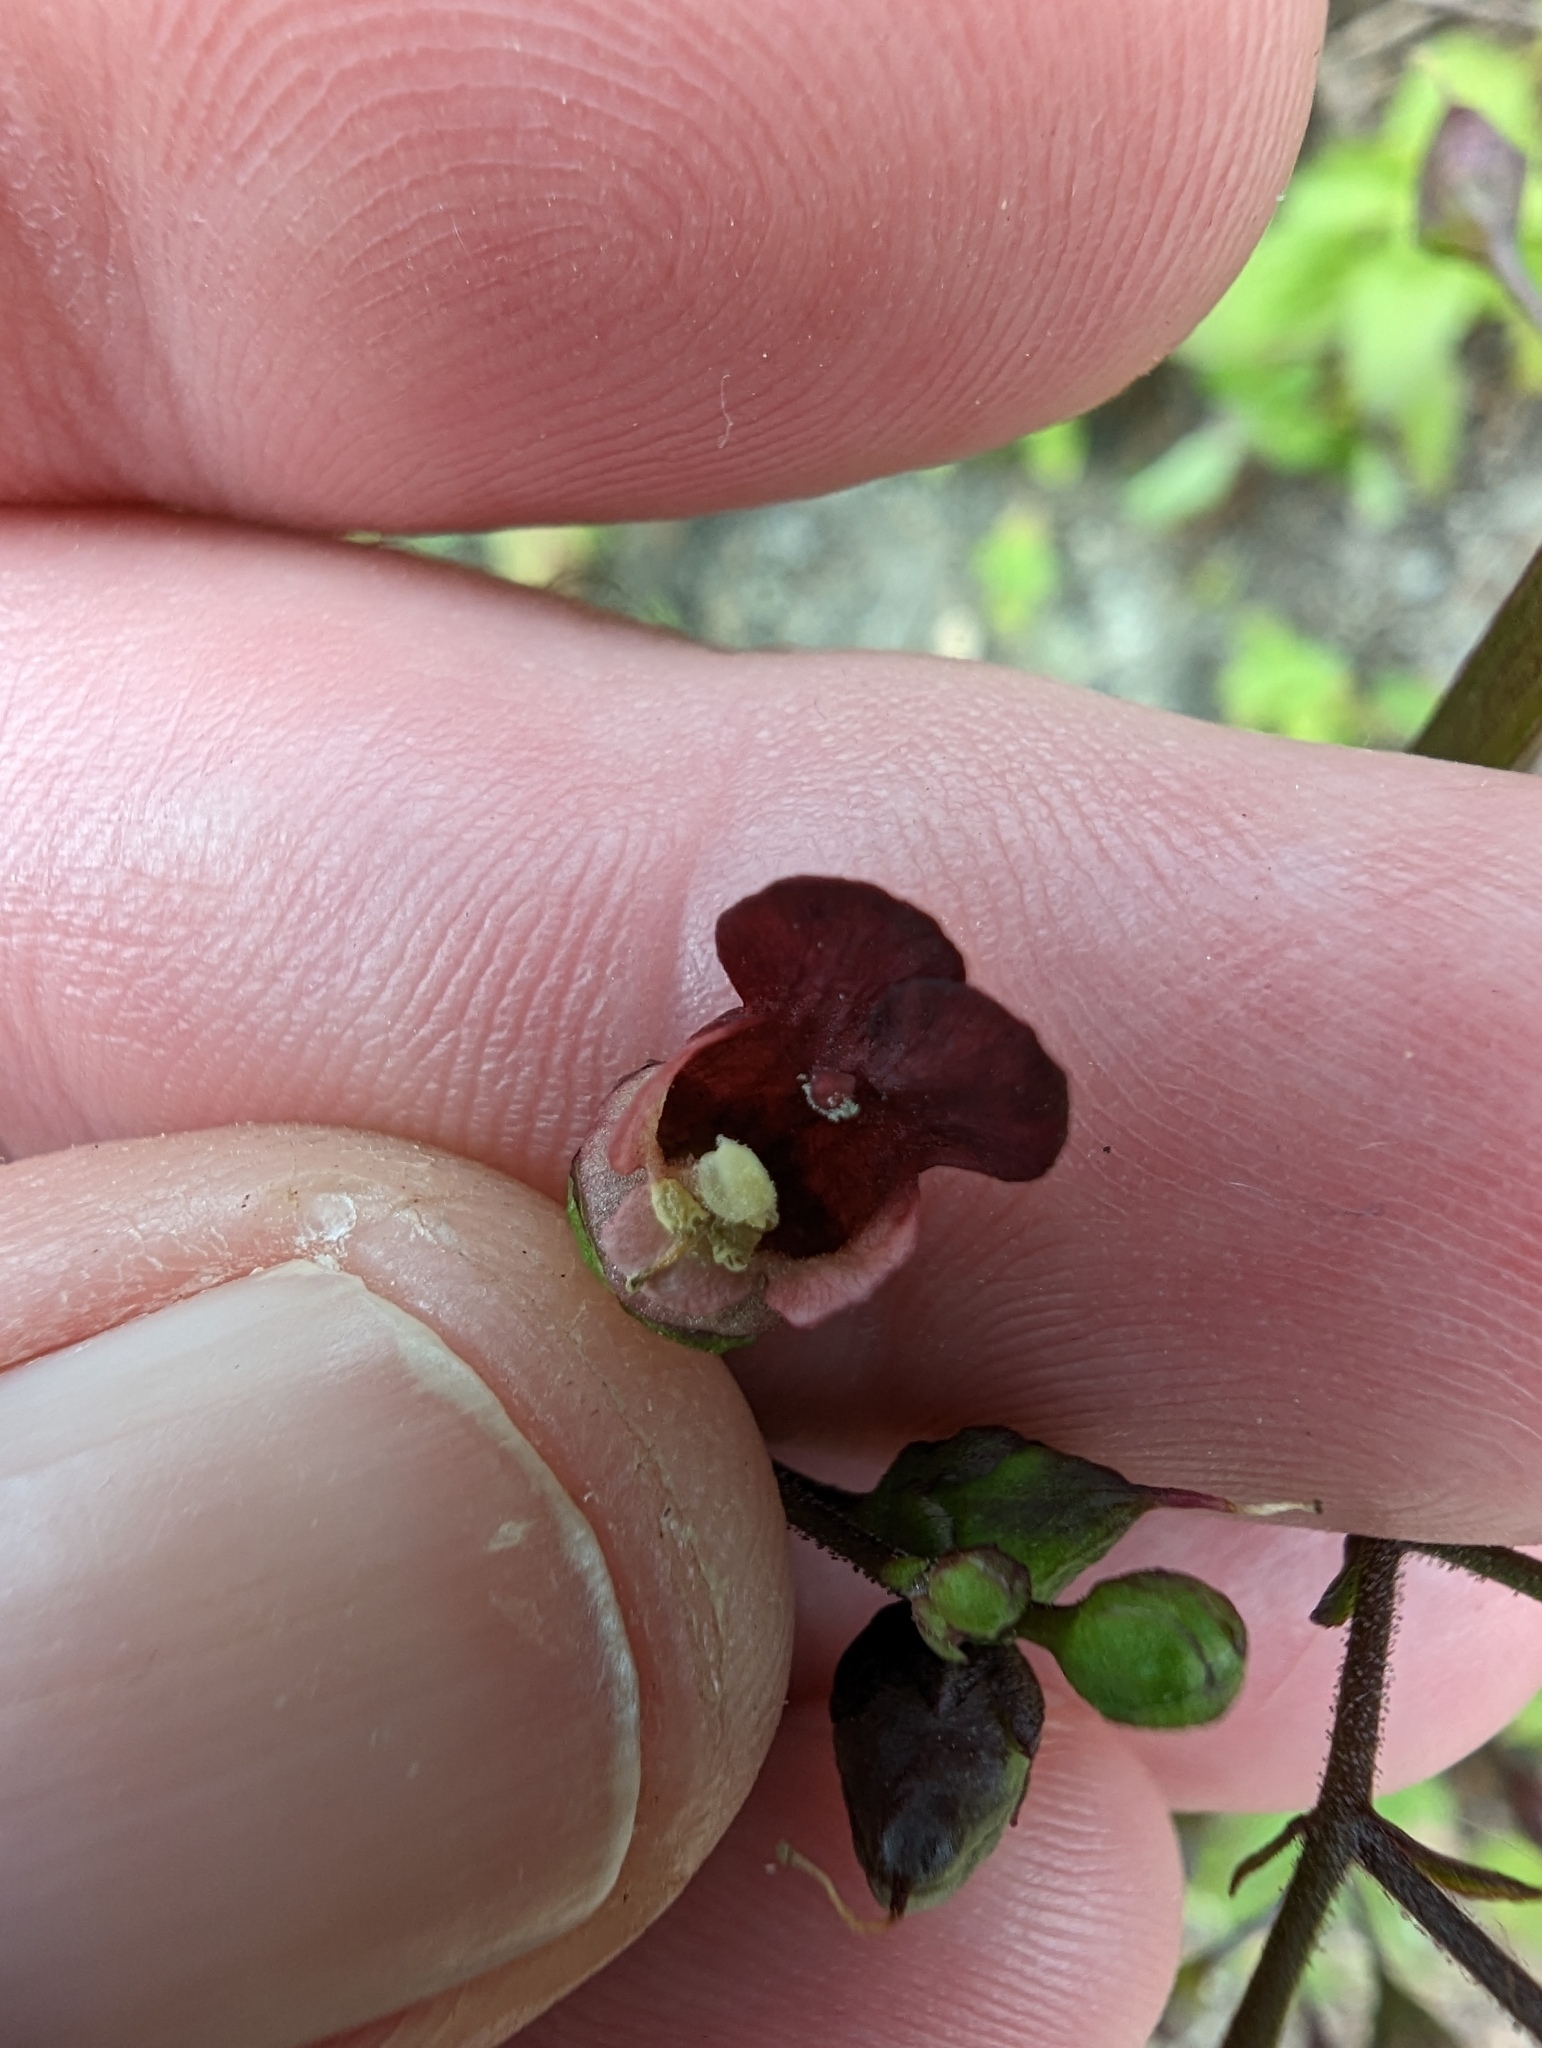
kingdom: Plantae
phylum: Tracheophyta
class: Magnoliopsida
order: Lamiales
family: Scrophulariaceae
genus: Scrophularia
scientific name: Scrophularia californica
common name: California figwort
